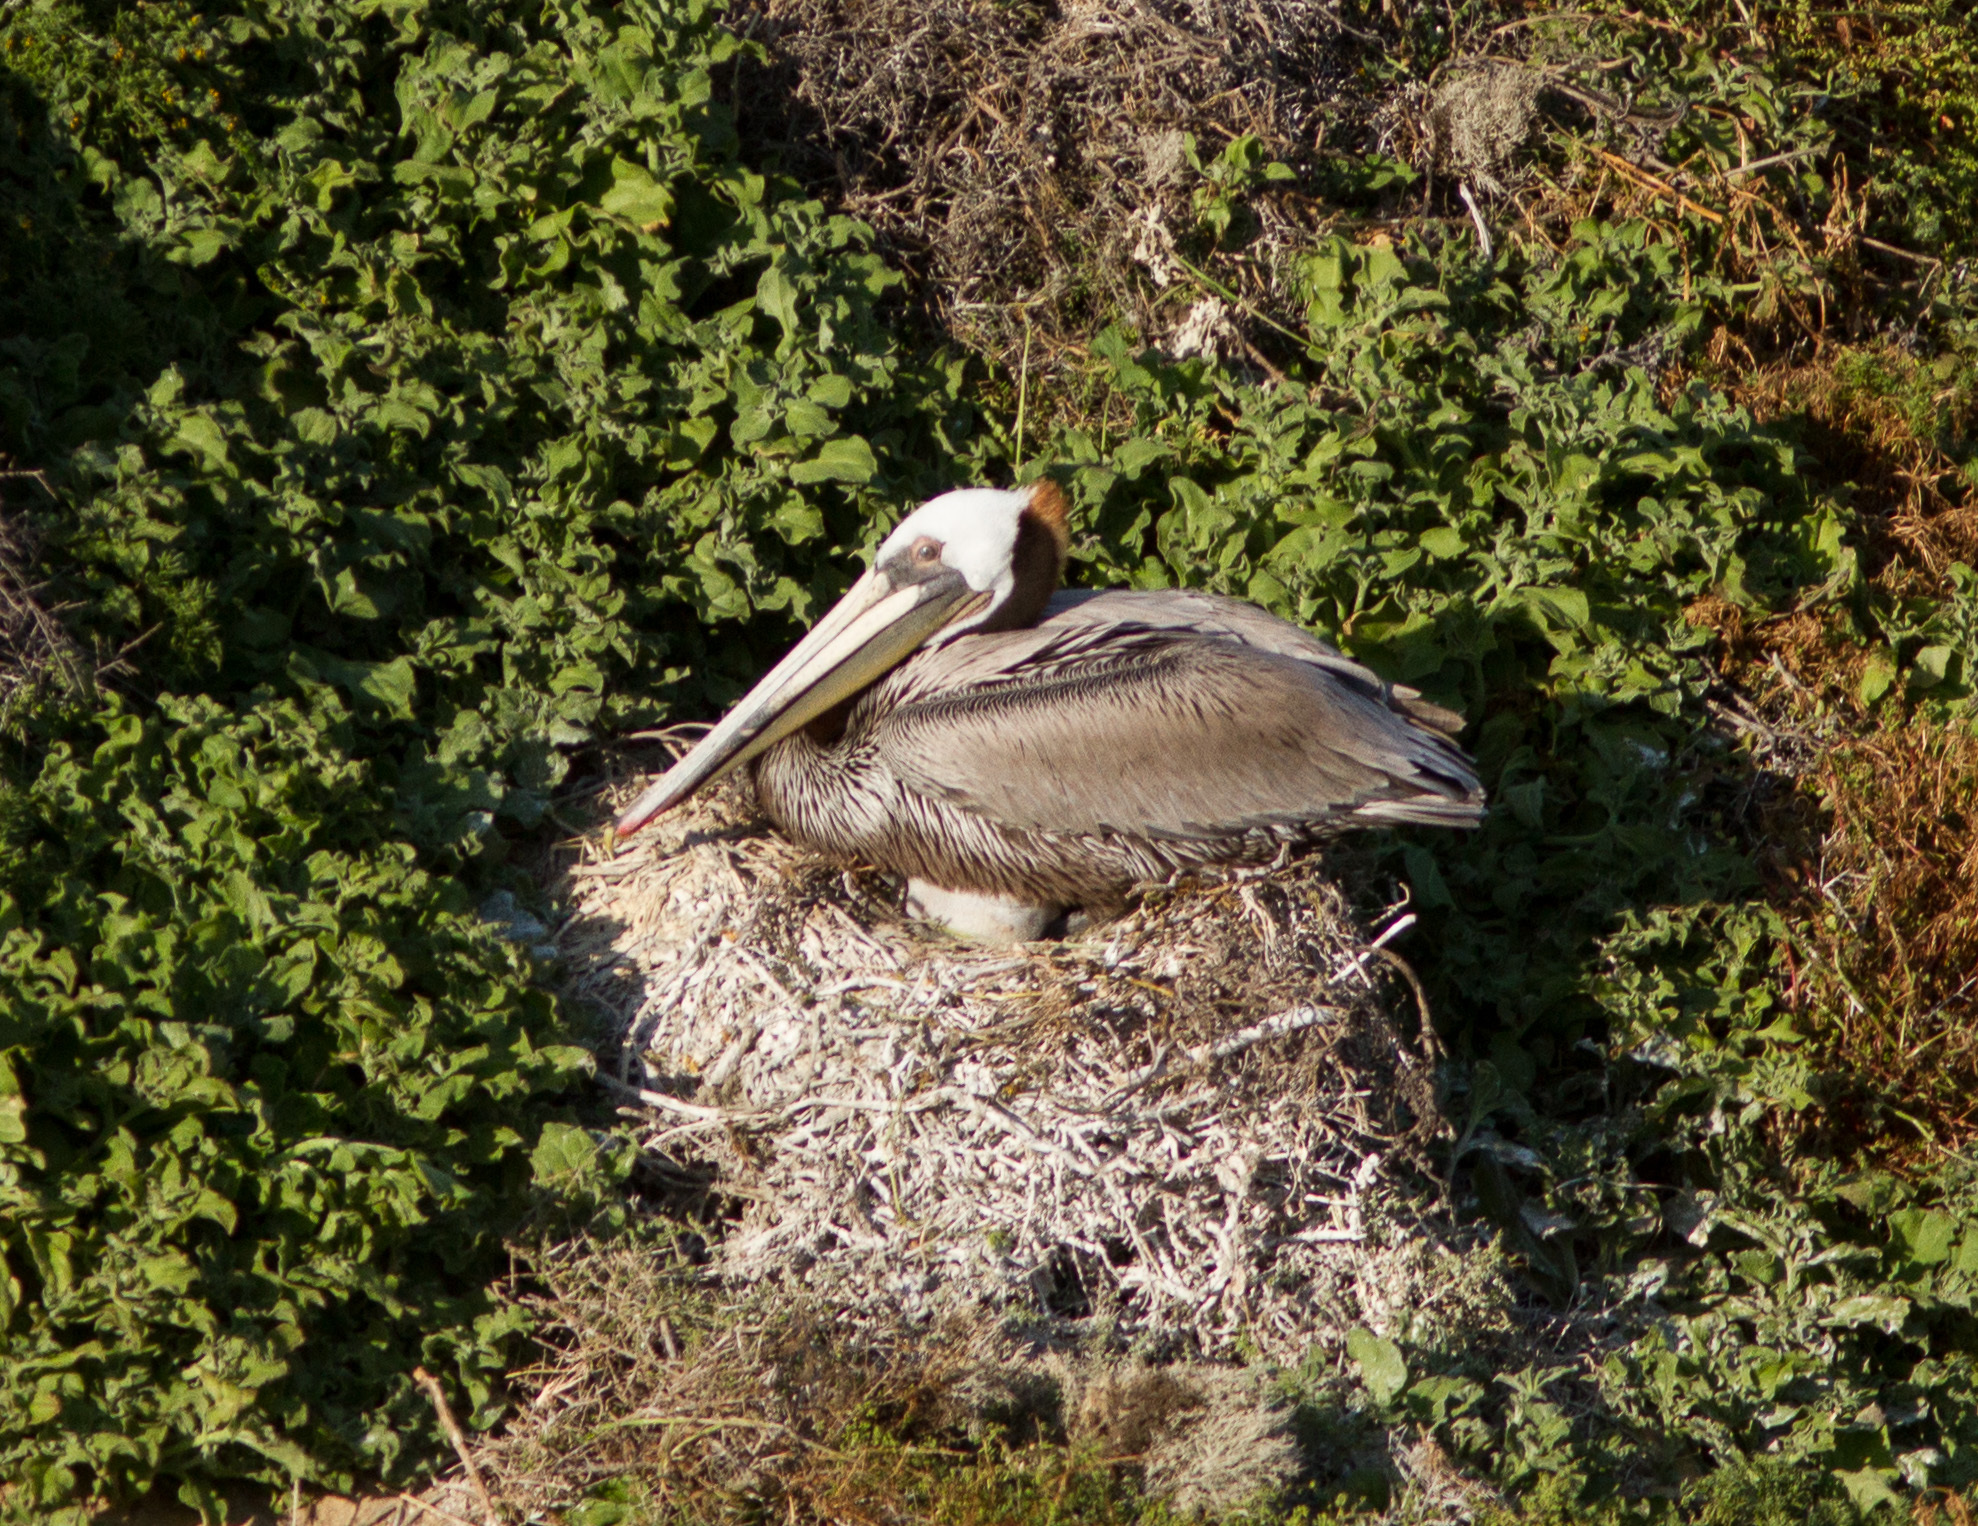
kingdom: Animalia
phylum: Chordata
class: Aves
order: Pelecaniformes
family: Pelecanidae
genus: Pelecanus
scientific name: Pelecanus occidentalis
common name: Brown pelican
